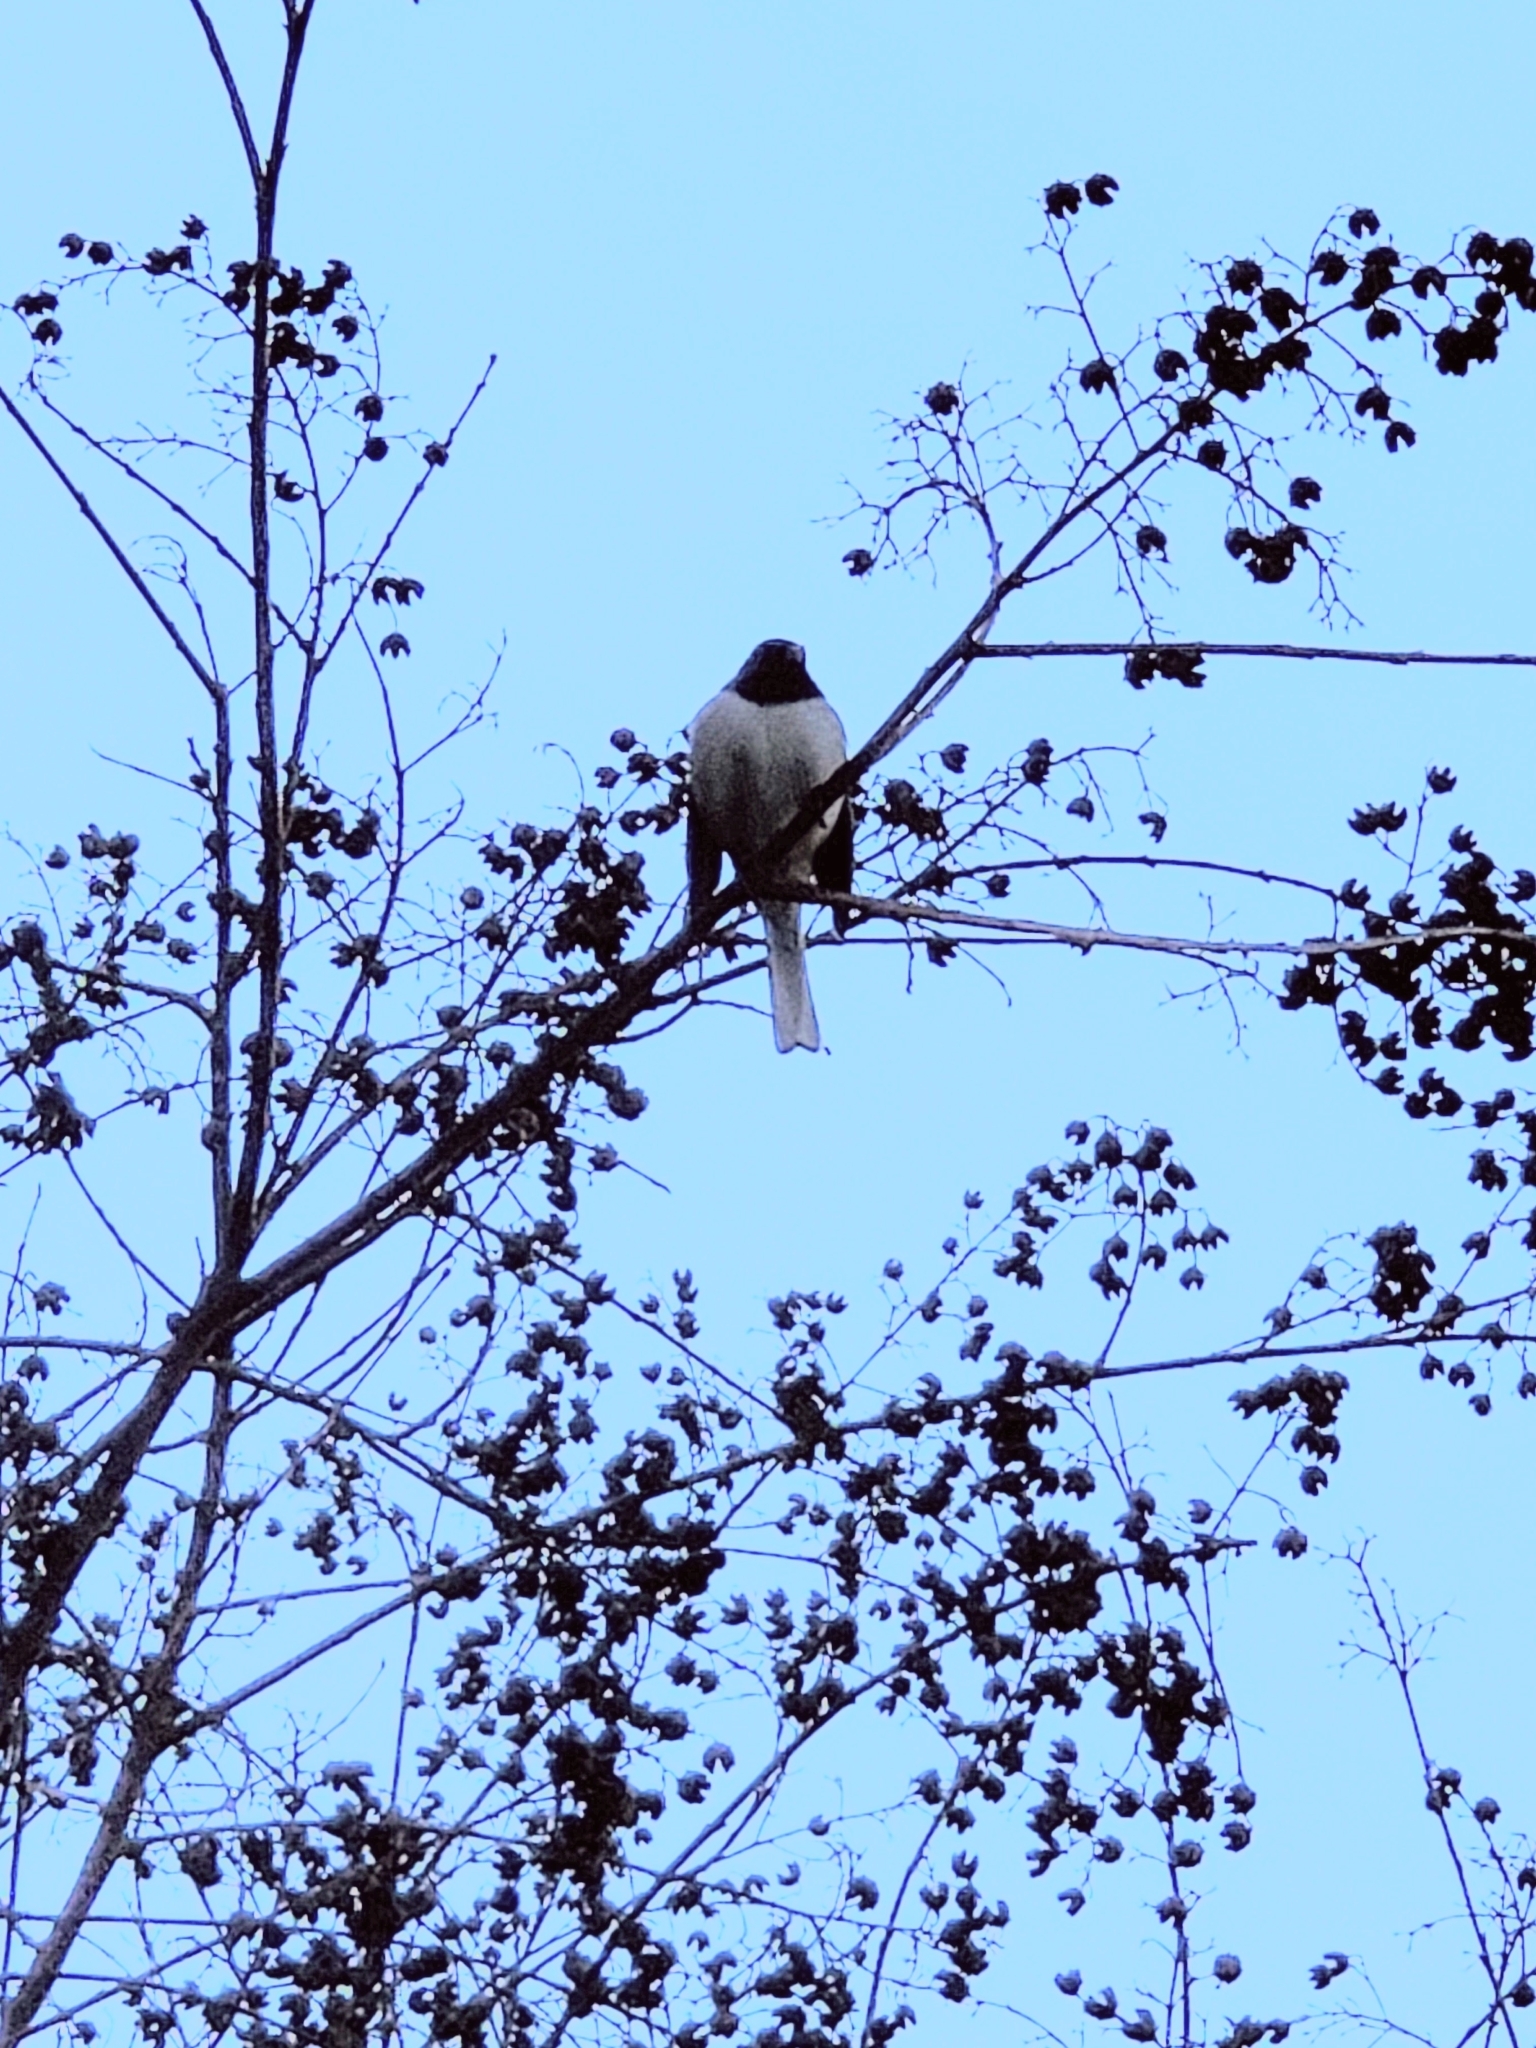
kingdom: Animalia
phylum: Chordata
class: Aves
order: Passeriformes
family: Passerellidae
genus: Junco
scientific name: Junco hyemalis
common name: Dark-eyed junco
